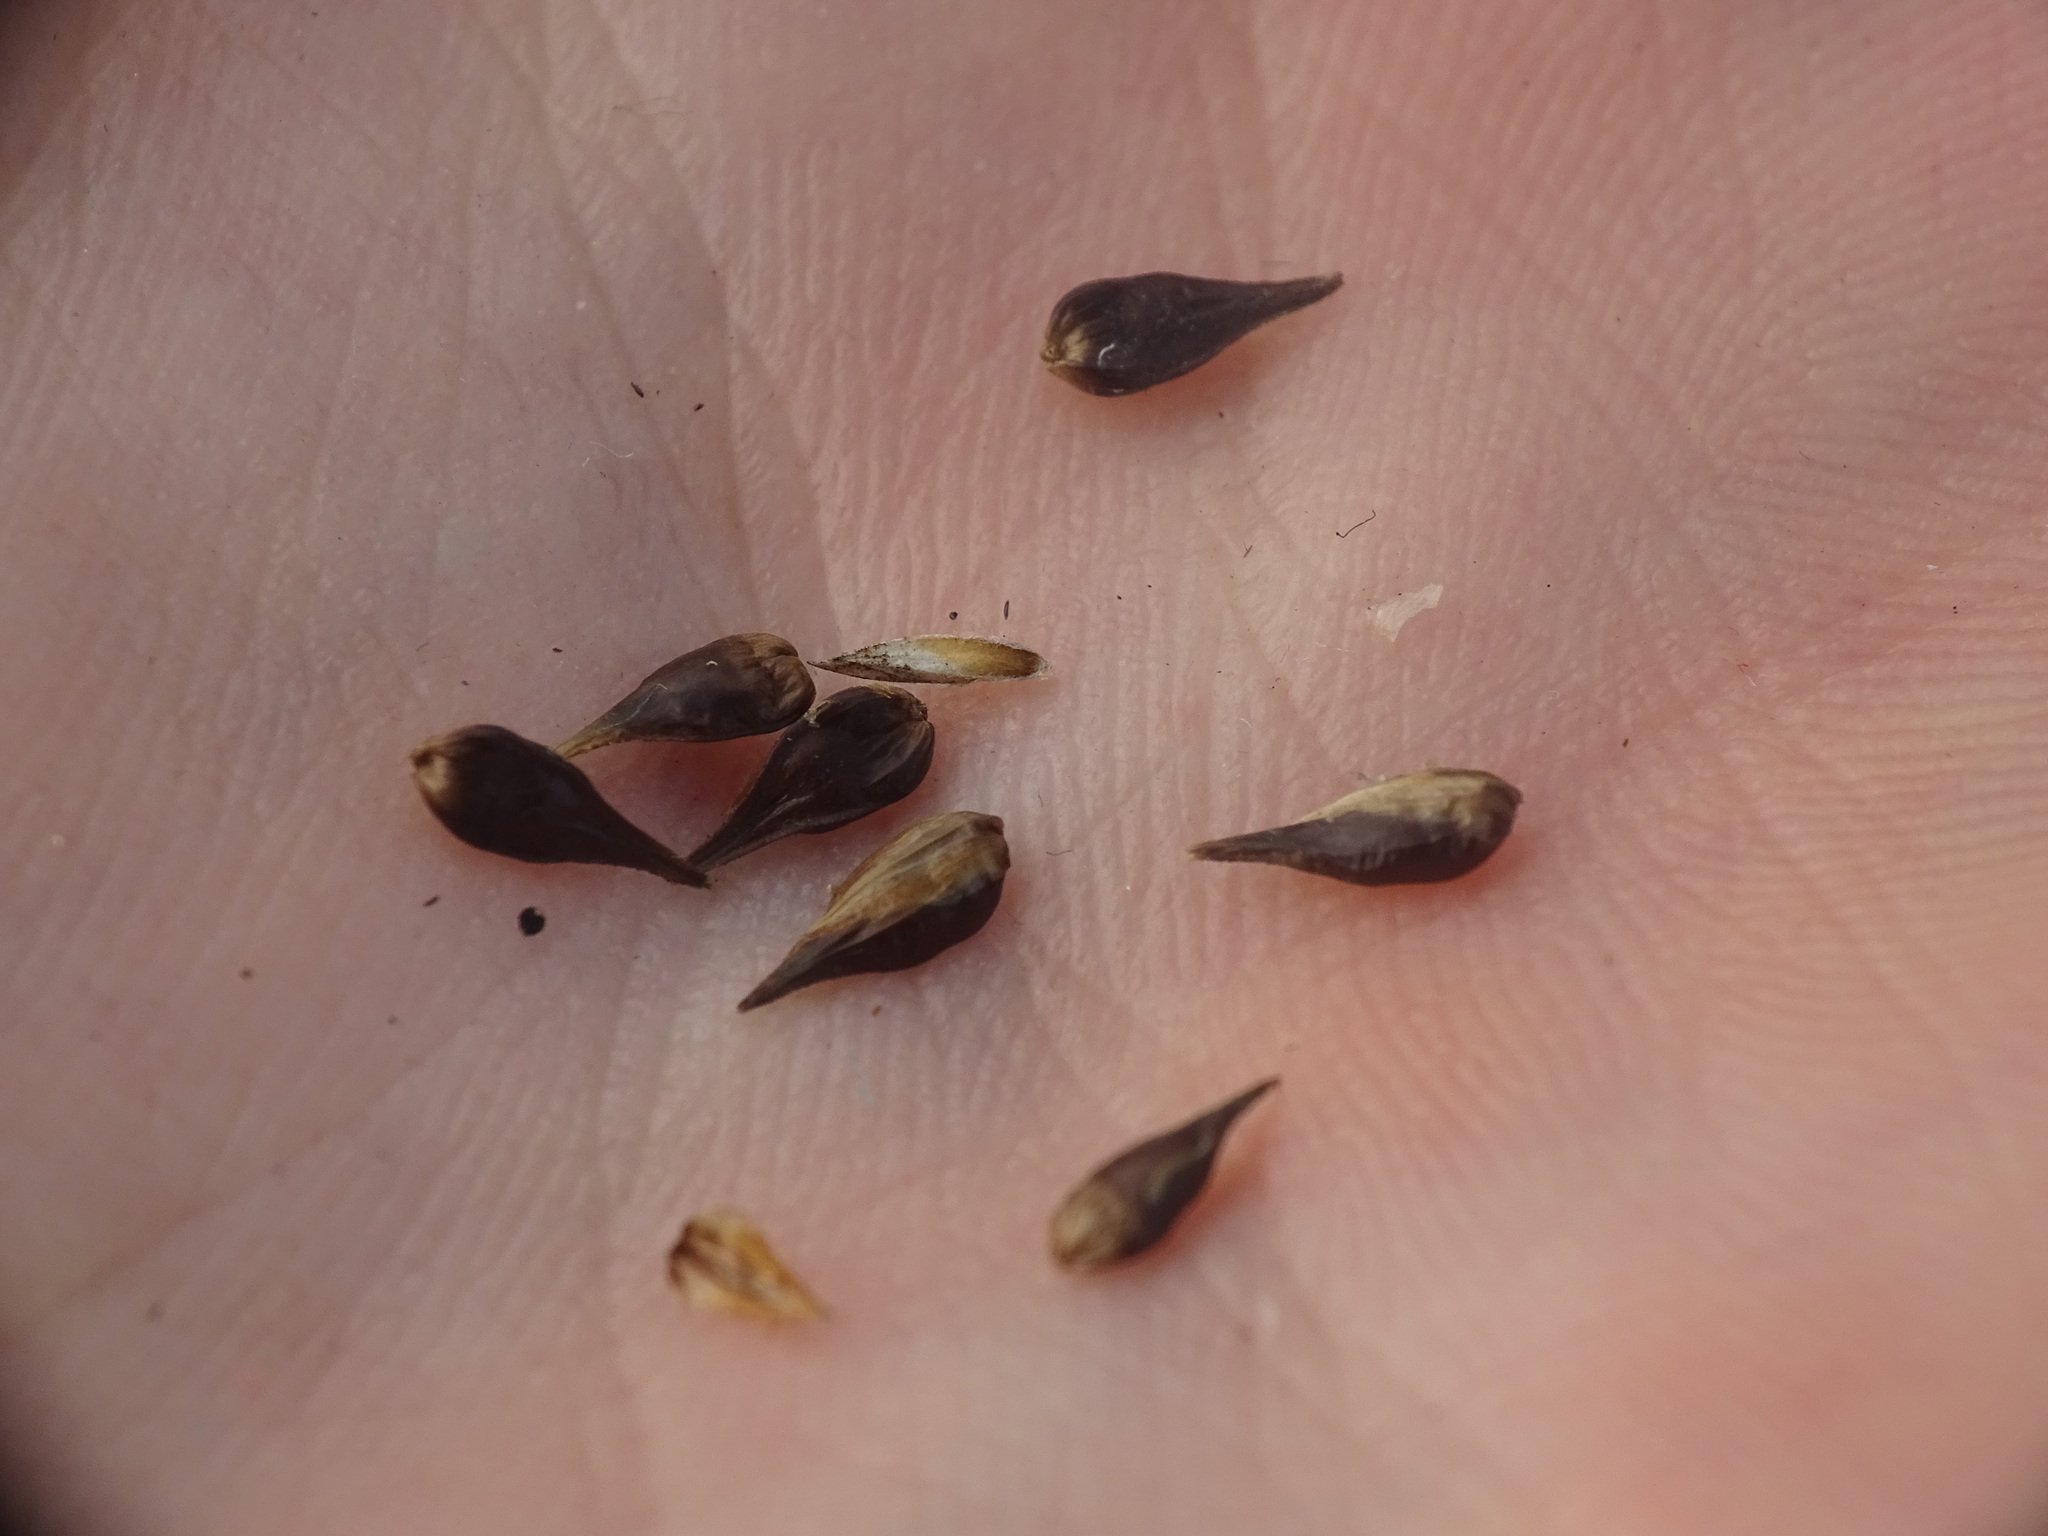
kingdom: Plantae
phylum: Tracheophyta
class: Liliopsida
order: Poales
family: Cyperaceae
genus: Carex
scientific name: Carex spicata
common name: Spiked sedge
